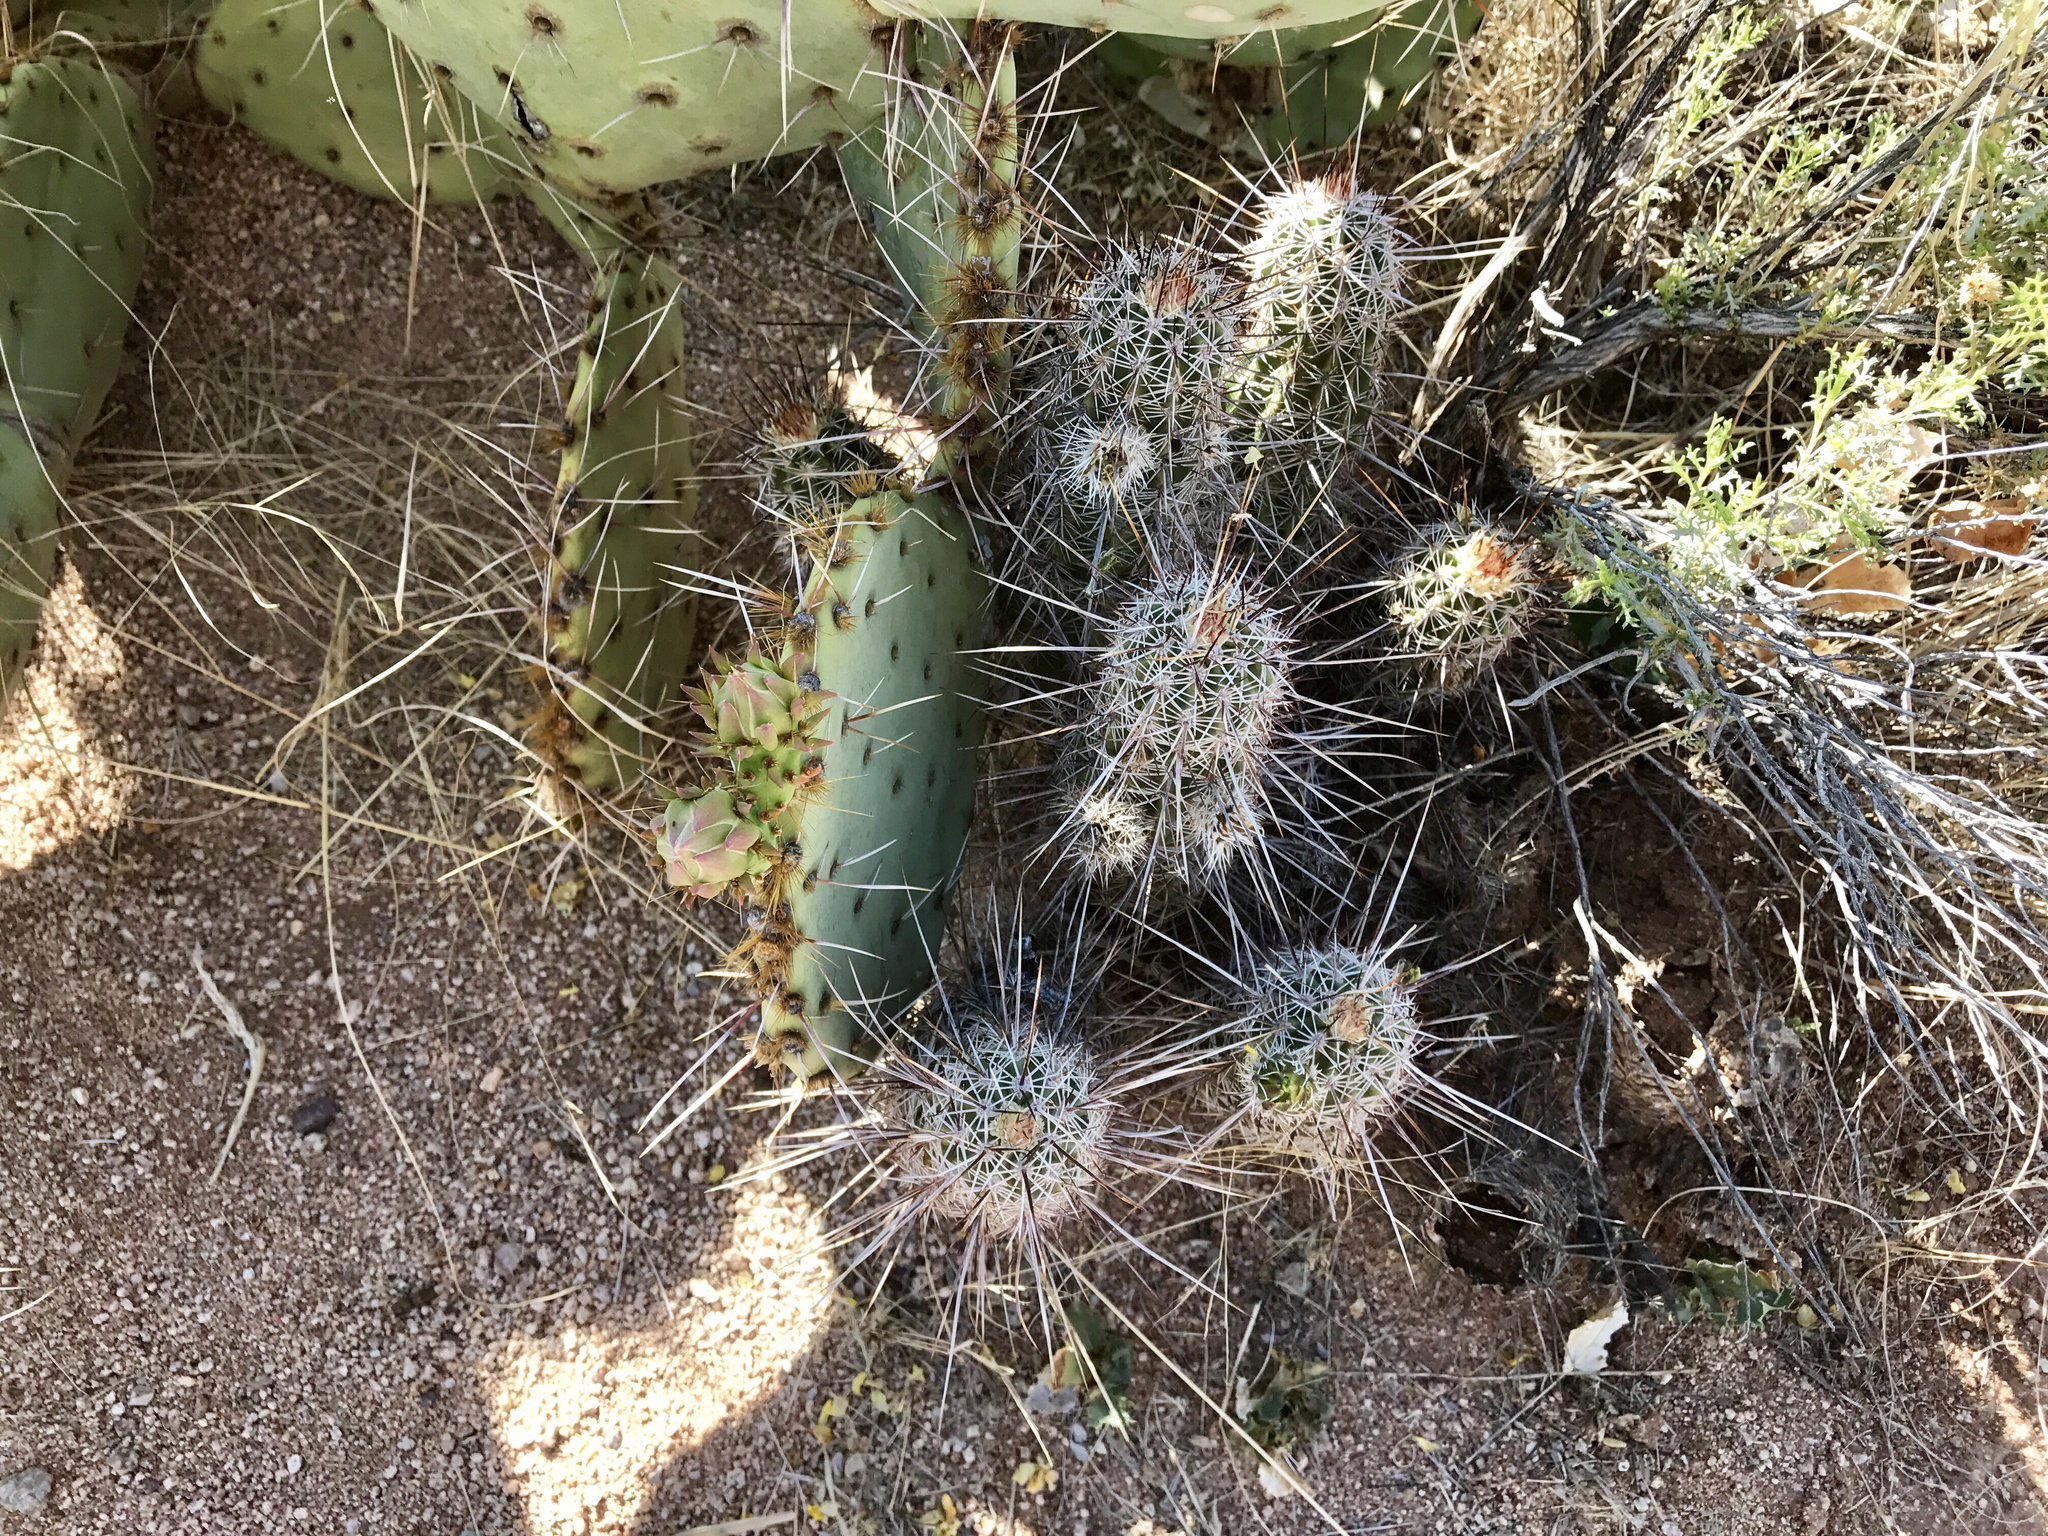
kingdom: Plantae
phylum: Tracheophyta
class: Magnoliopsida
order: Caryophyllales
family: Cactaceae
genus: Echinocereus
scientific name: Echinocereus fasciculatus
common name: Bundle hedgehog
